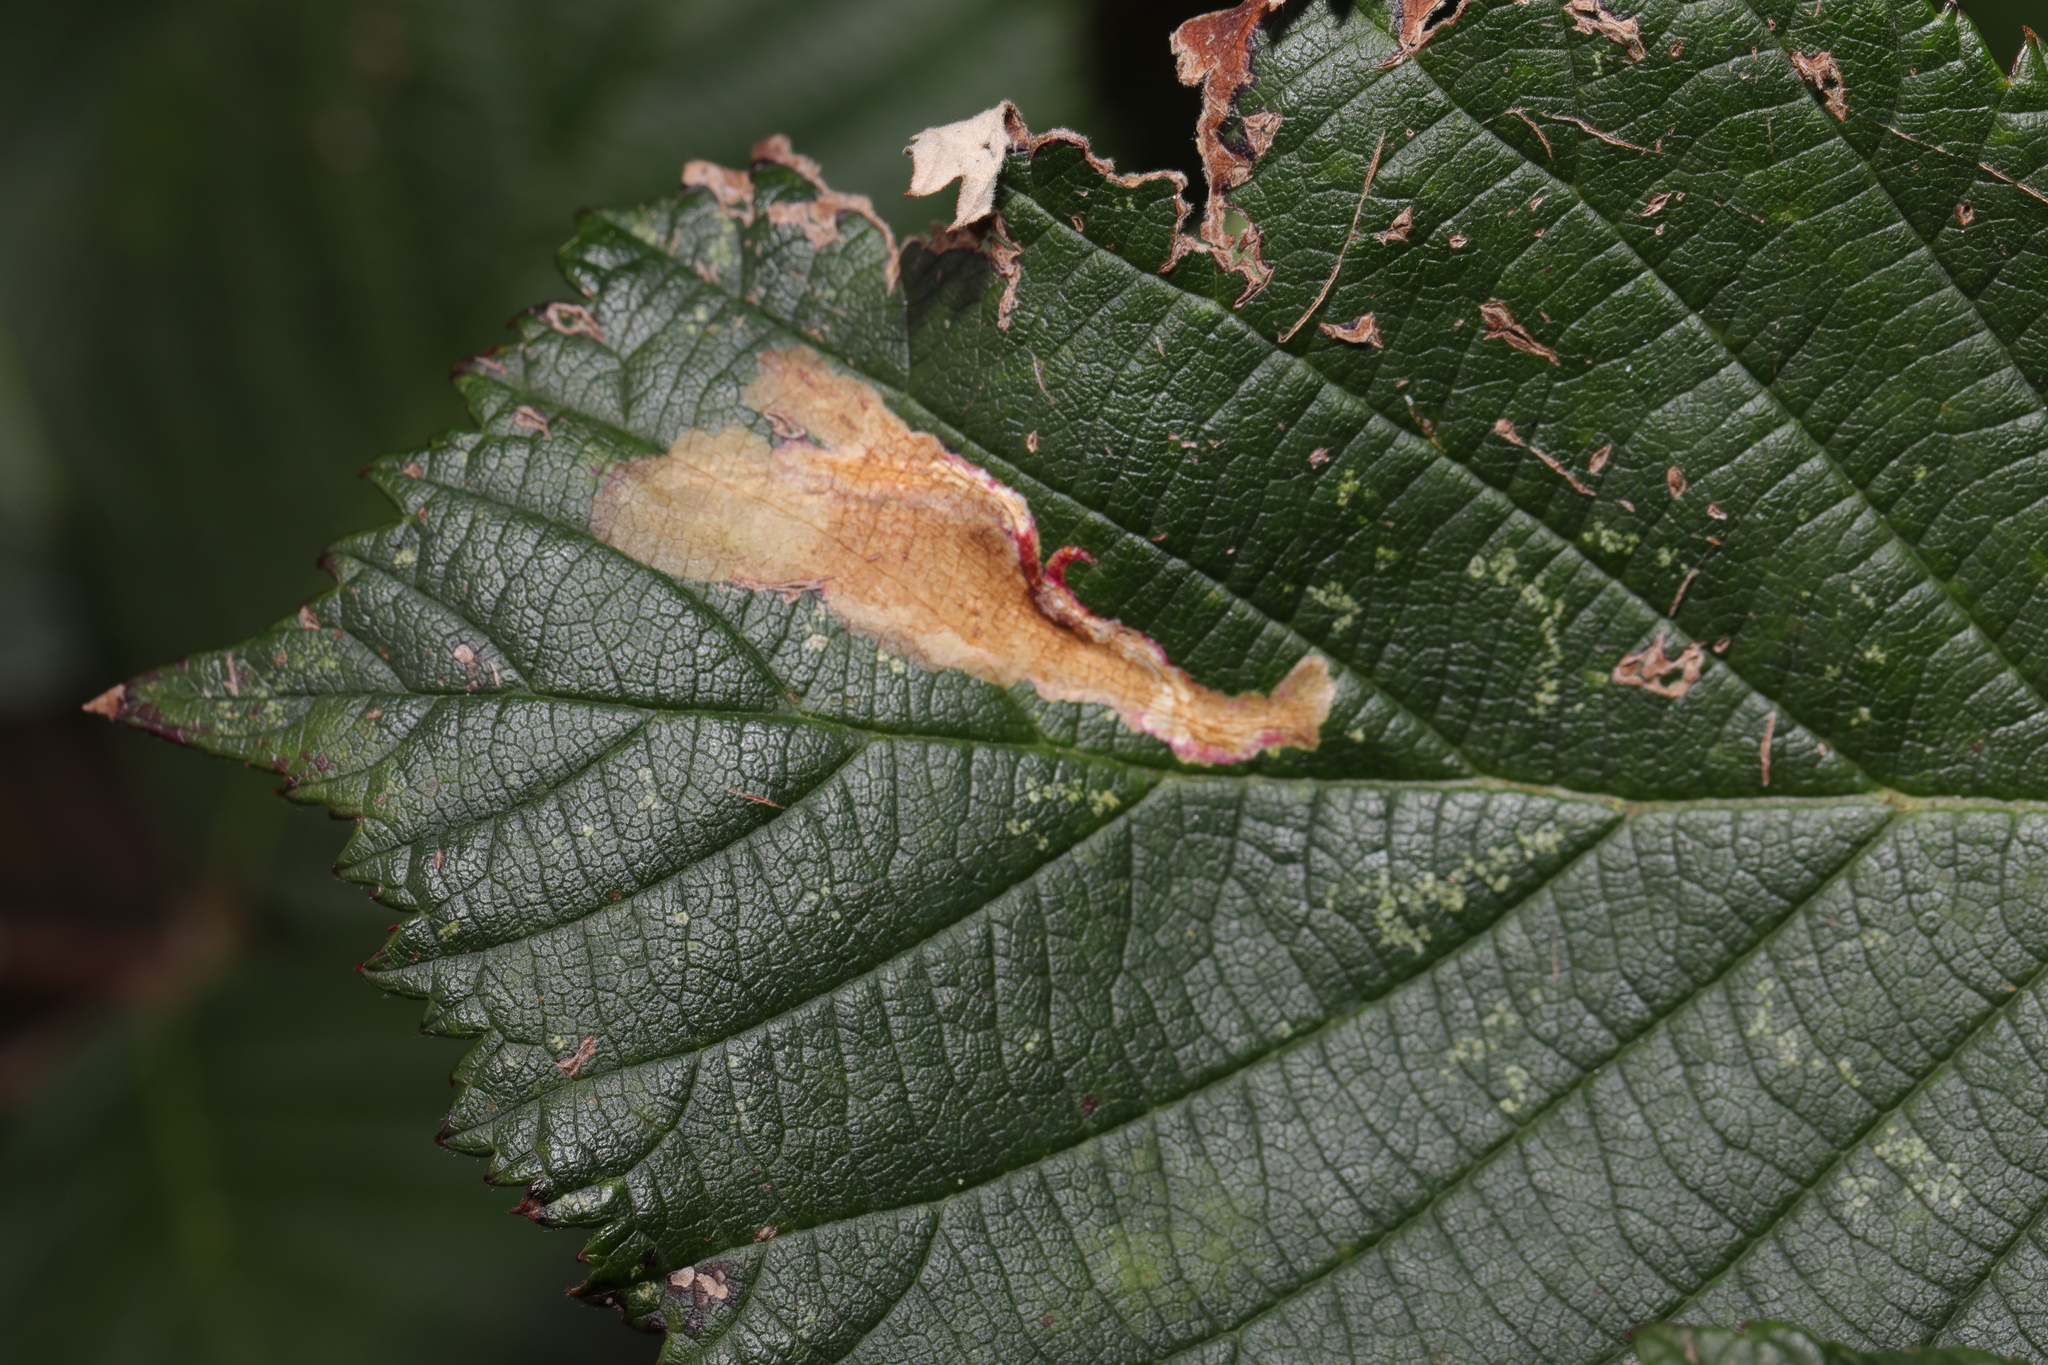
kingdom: Animalia
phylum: Arthropoda
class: Insecta
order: Lepidoptera
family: Tischeriidae
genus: Coptotriche
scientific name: Coptotriche marginea
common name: Bordered carl
